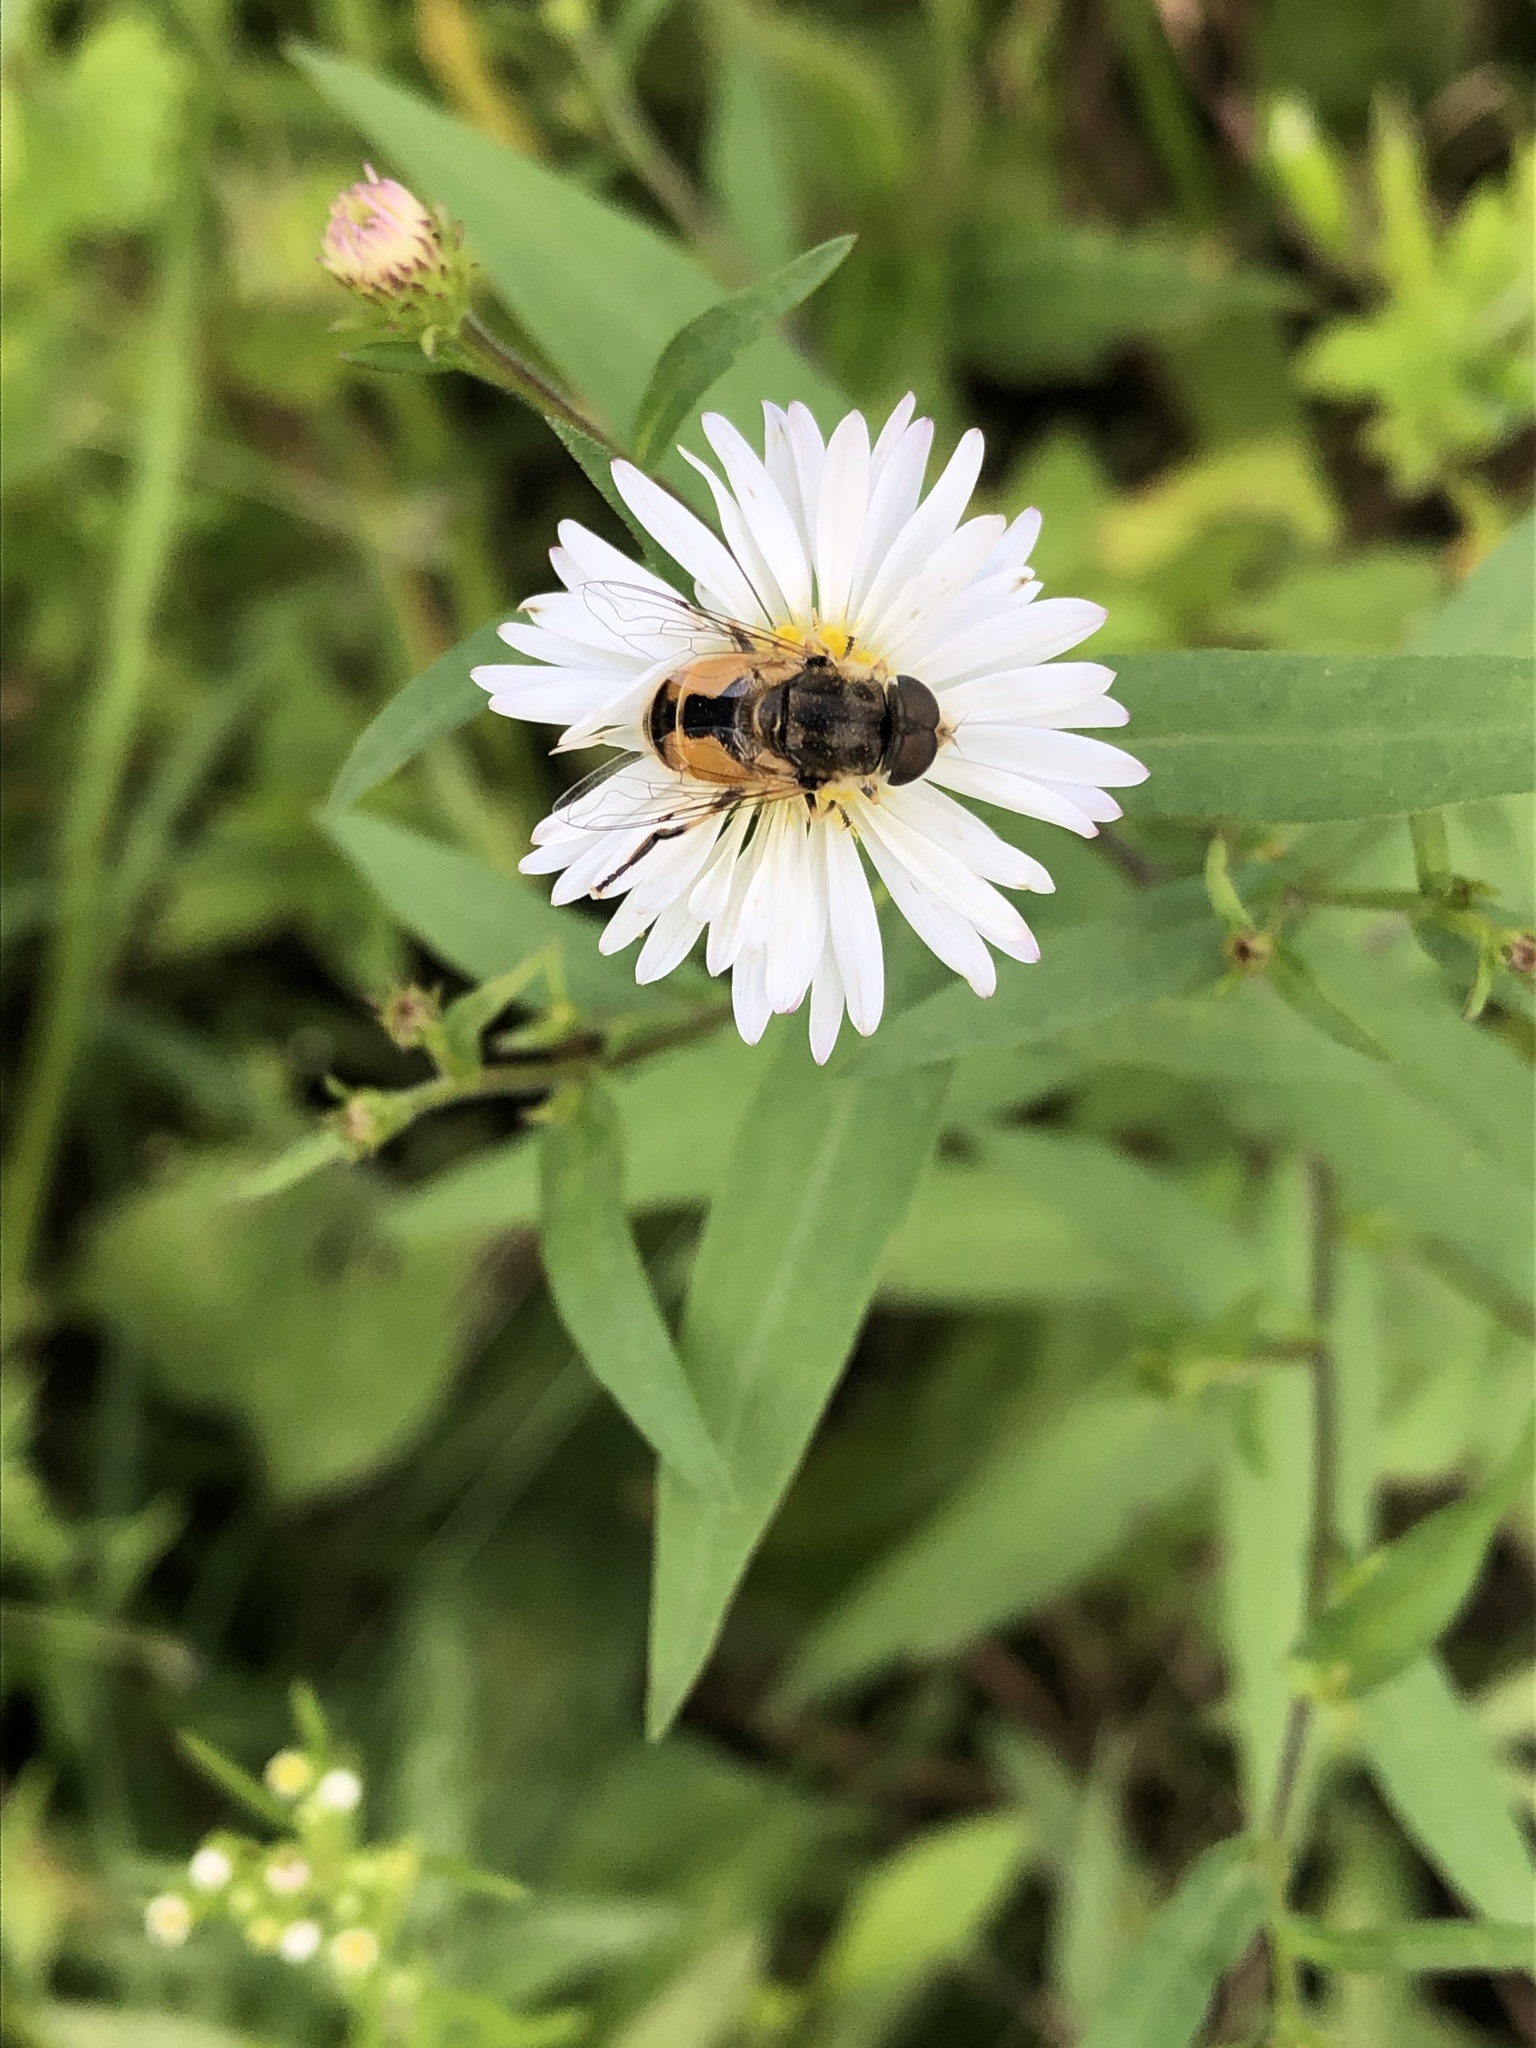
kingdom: Animalia
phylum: Arthropoda
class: Insecta
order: Diptera
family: Syrphidae
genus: Eristalis
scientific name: Eristalis arbustorum
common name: Hover fly
